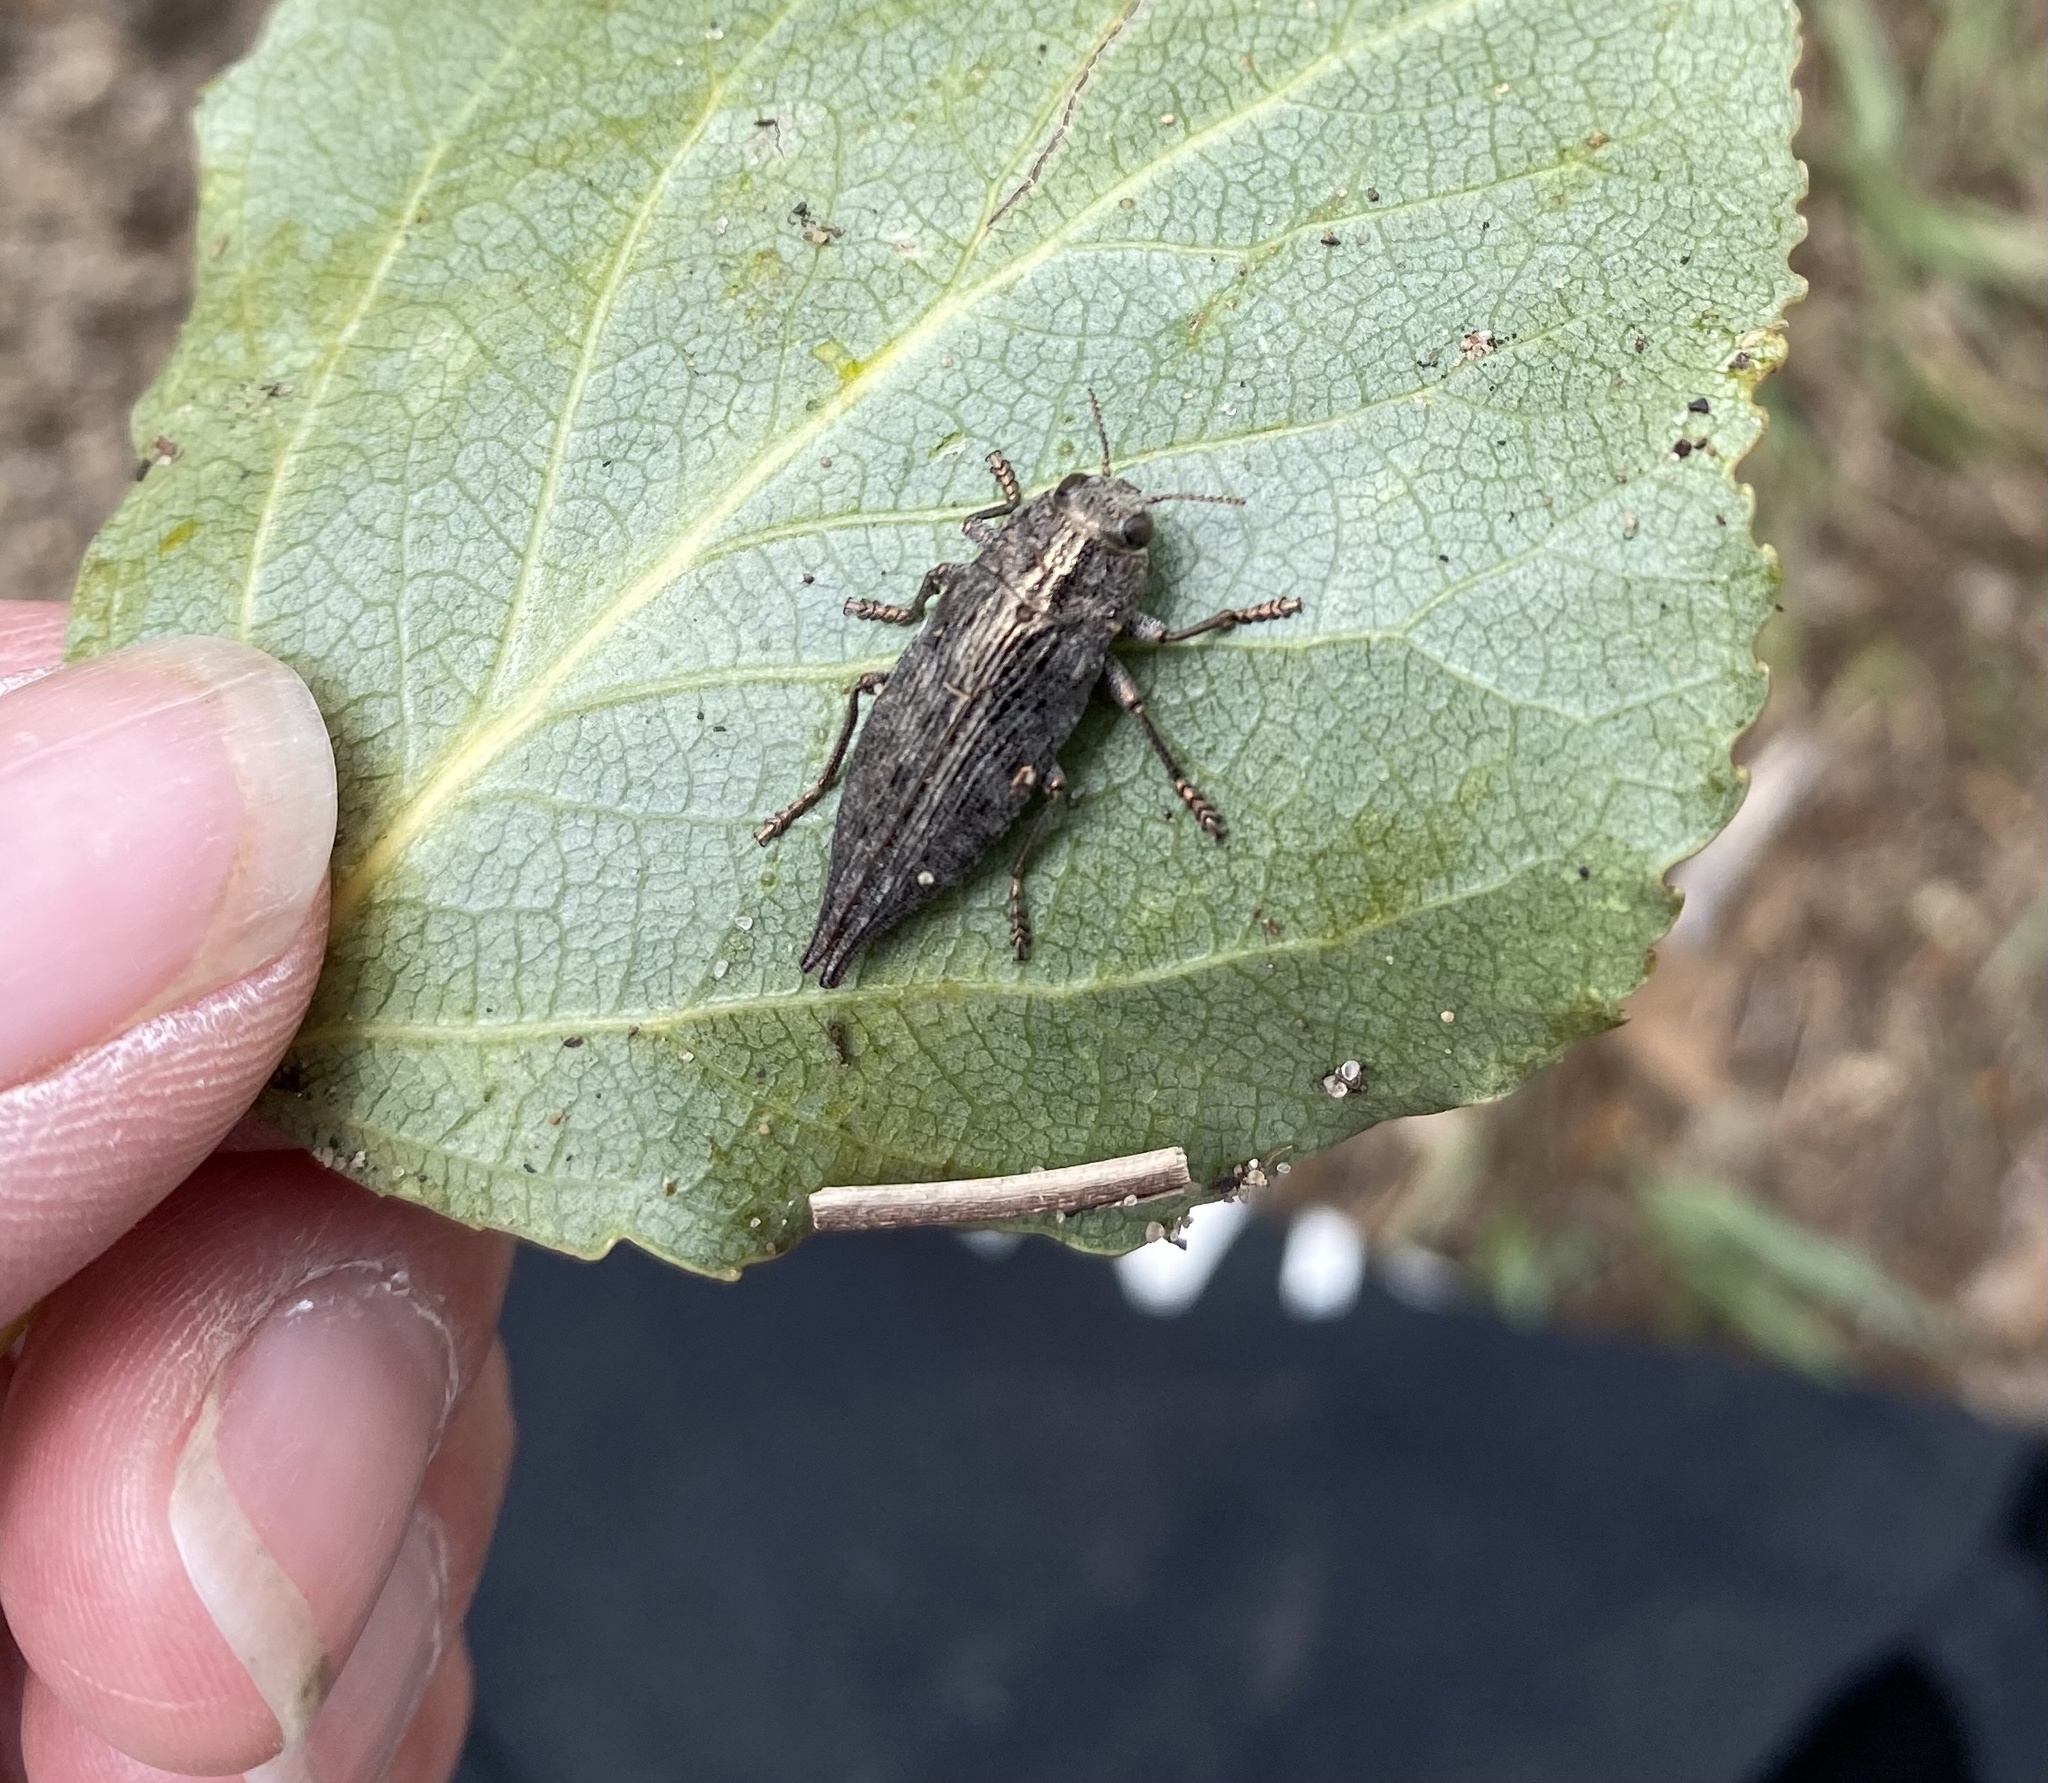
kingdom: Animalia
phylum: Arthropoda
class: Insecta
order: Coleoptera
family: Buprestidae
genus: Dicerca
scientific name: Dicerca tenebrica
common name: Flat-headed poplar borer
